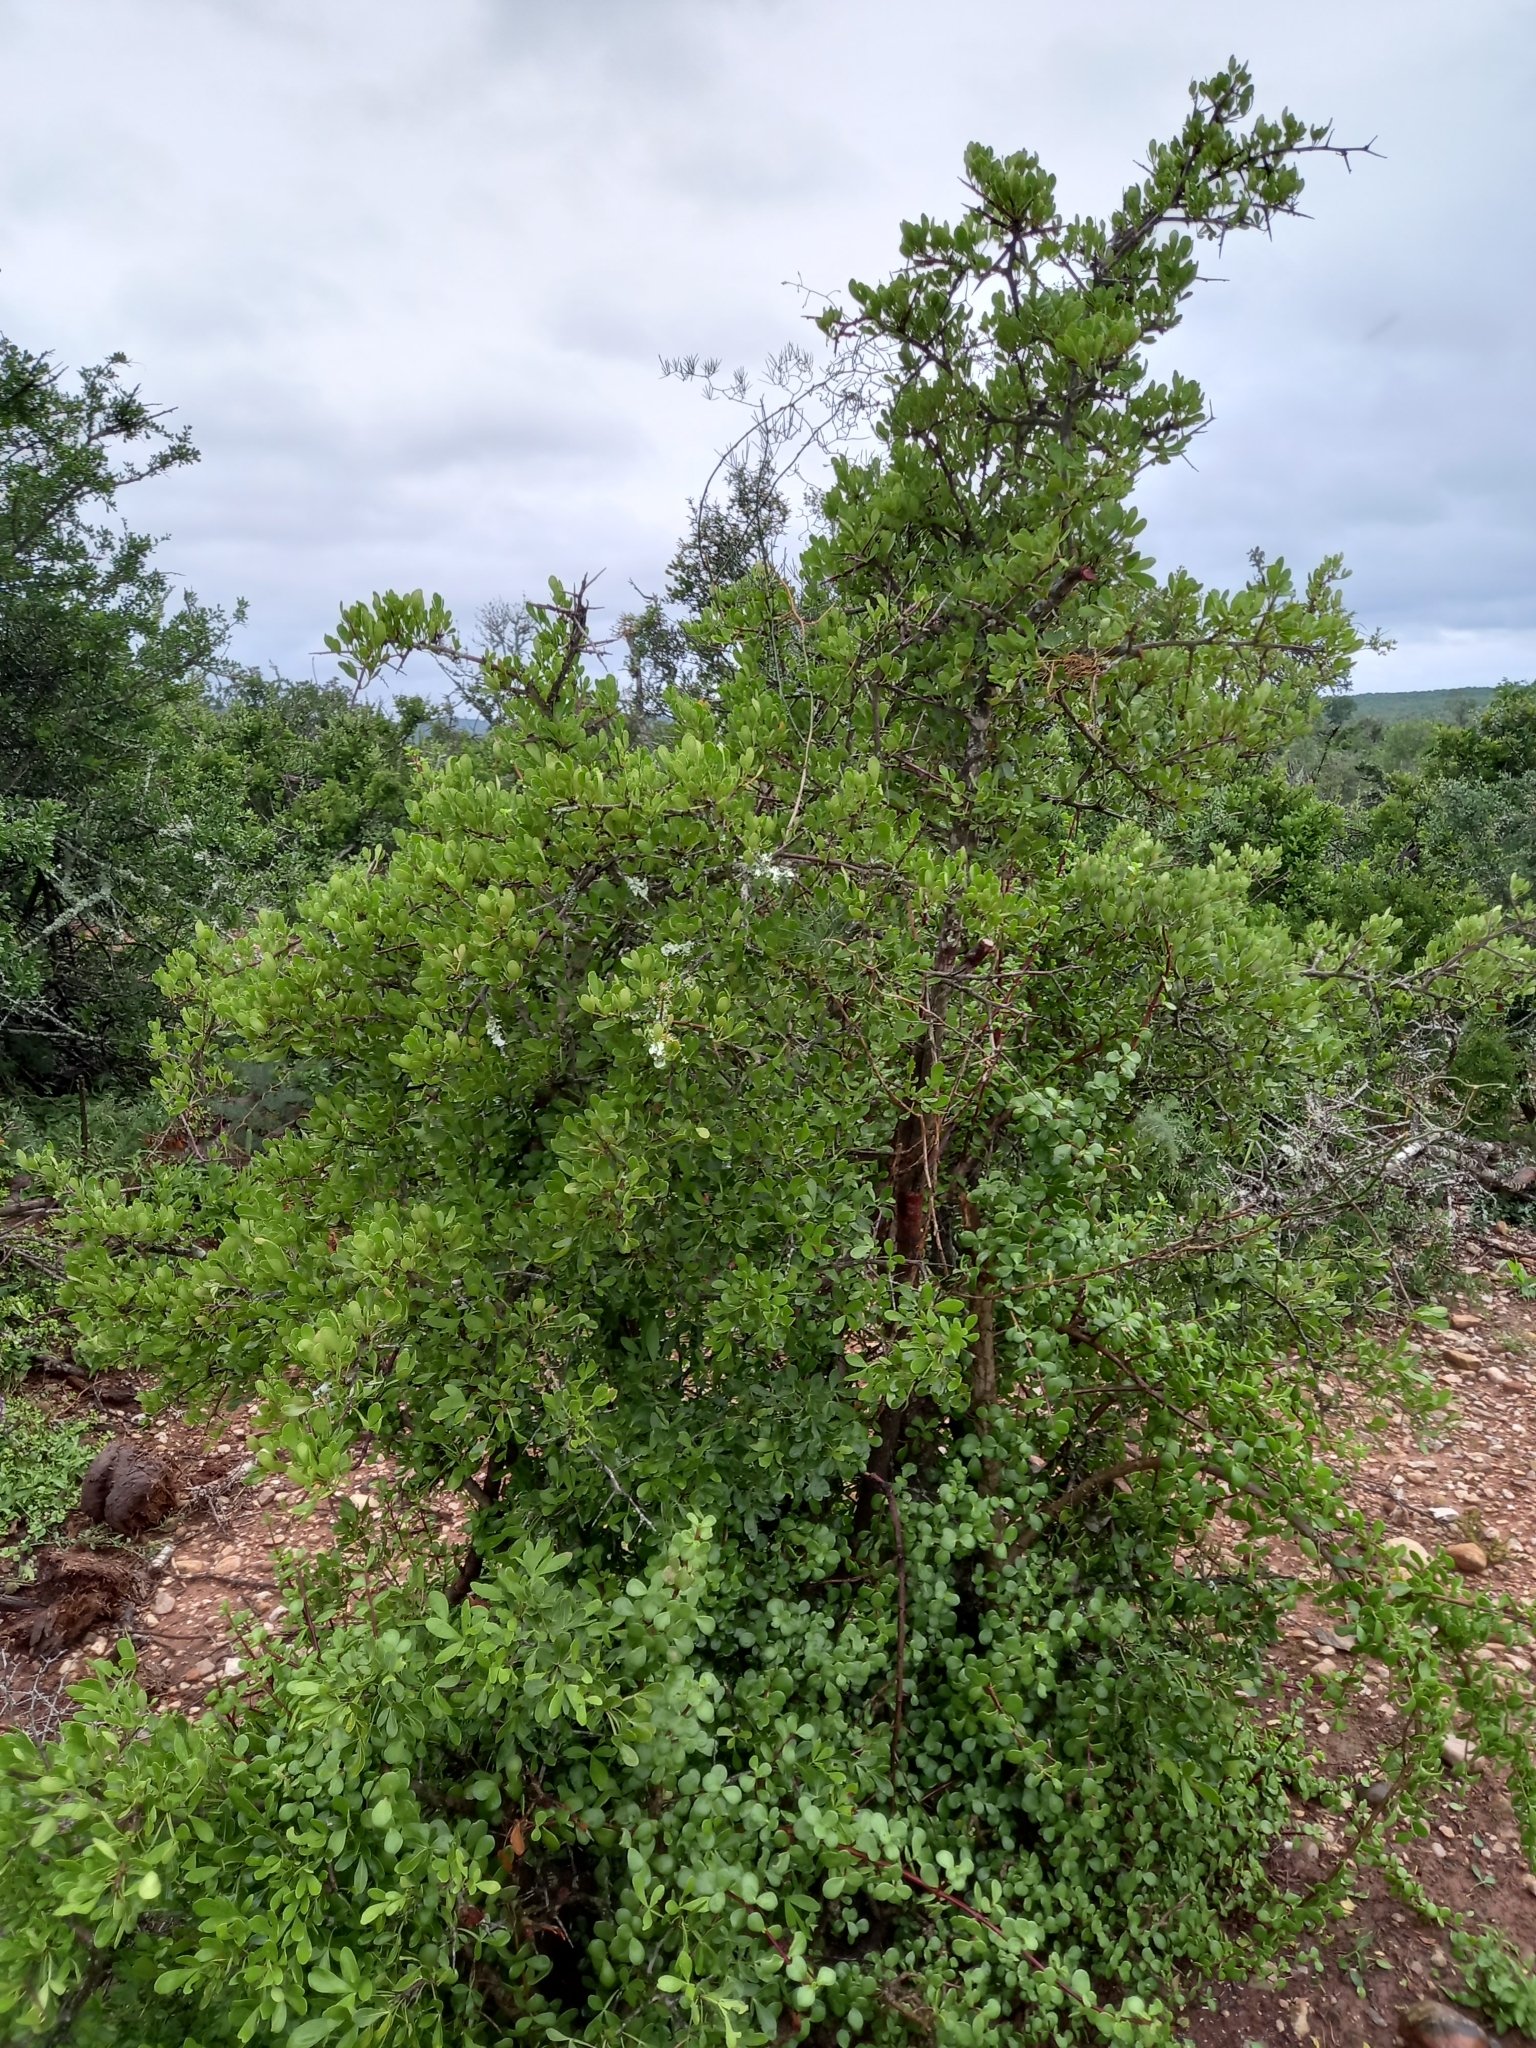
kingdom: Plantae
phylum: Tracheophyta
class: Magnoliopsida
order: Sapindales
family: Anacardiaceae
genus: Searsia
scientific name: Searsia pterota
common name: Winged currant
